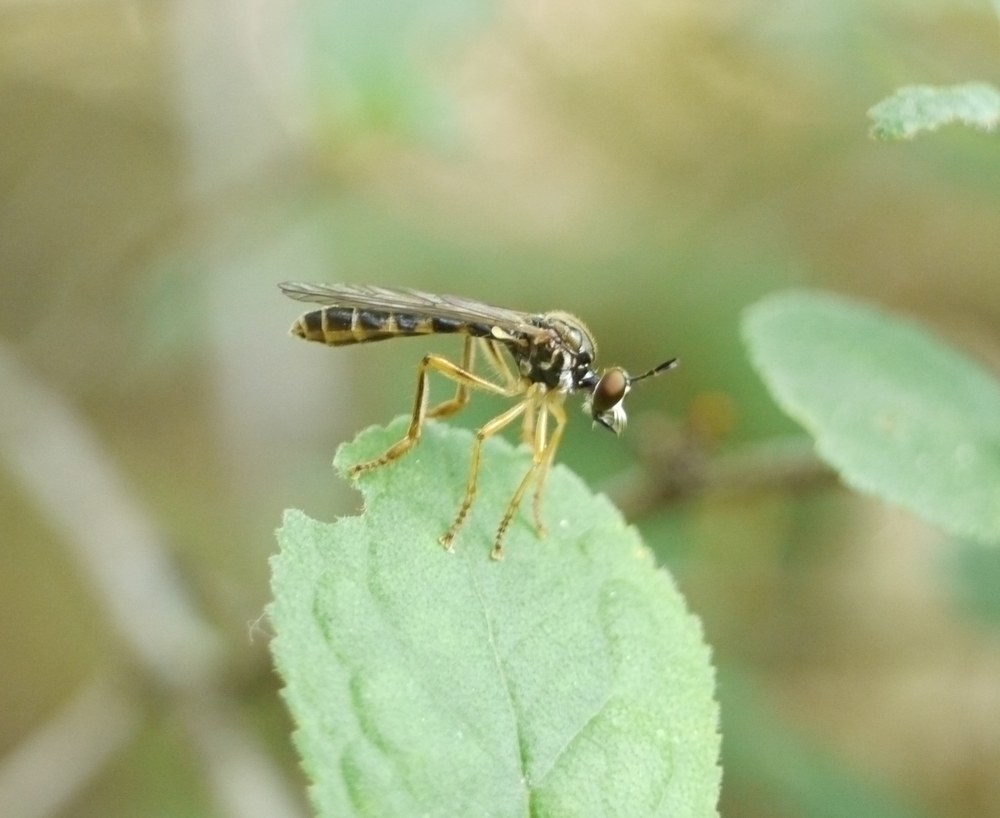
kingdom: Animalia
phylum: Arthropoda
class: Insecta
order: Diptera
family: Asilidae
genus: Dioctria
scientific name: Dioctria linearis
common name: Small yellow-legged robberfly
